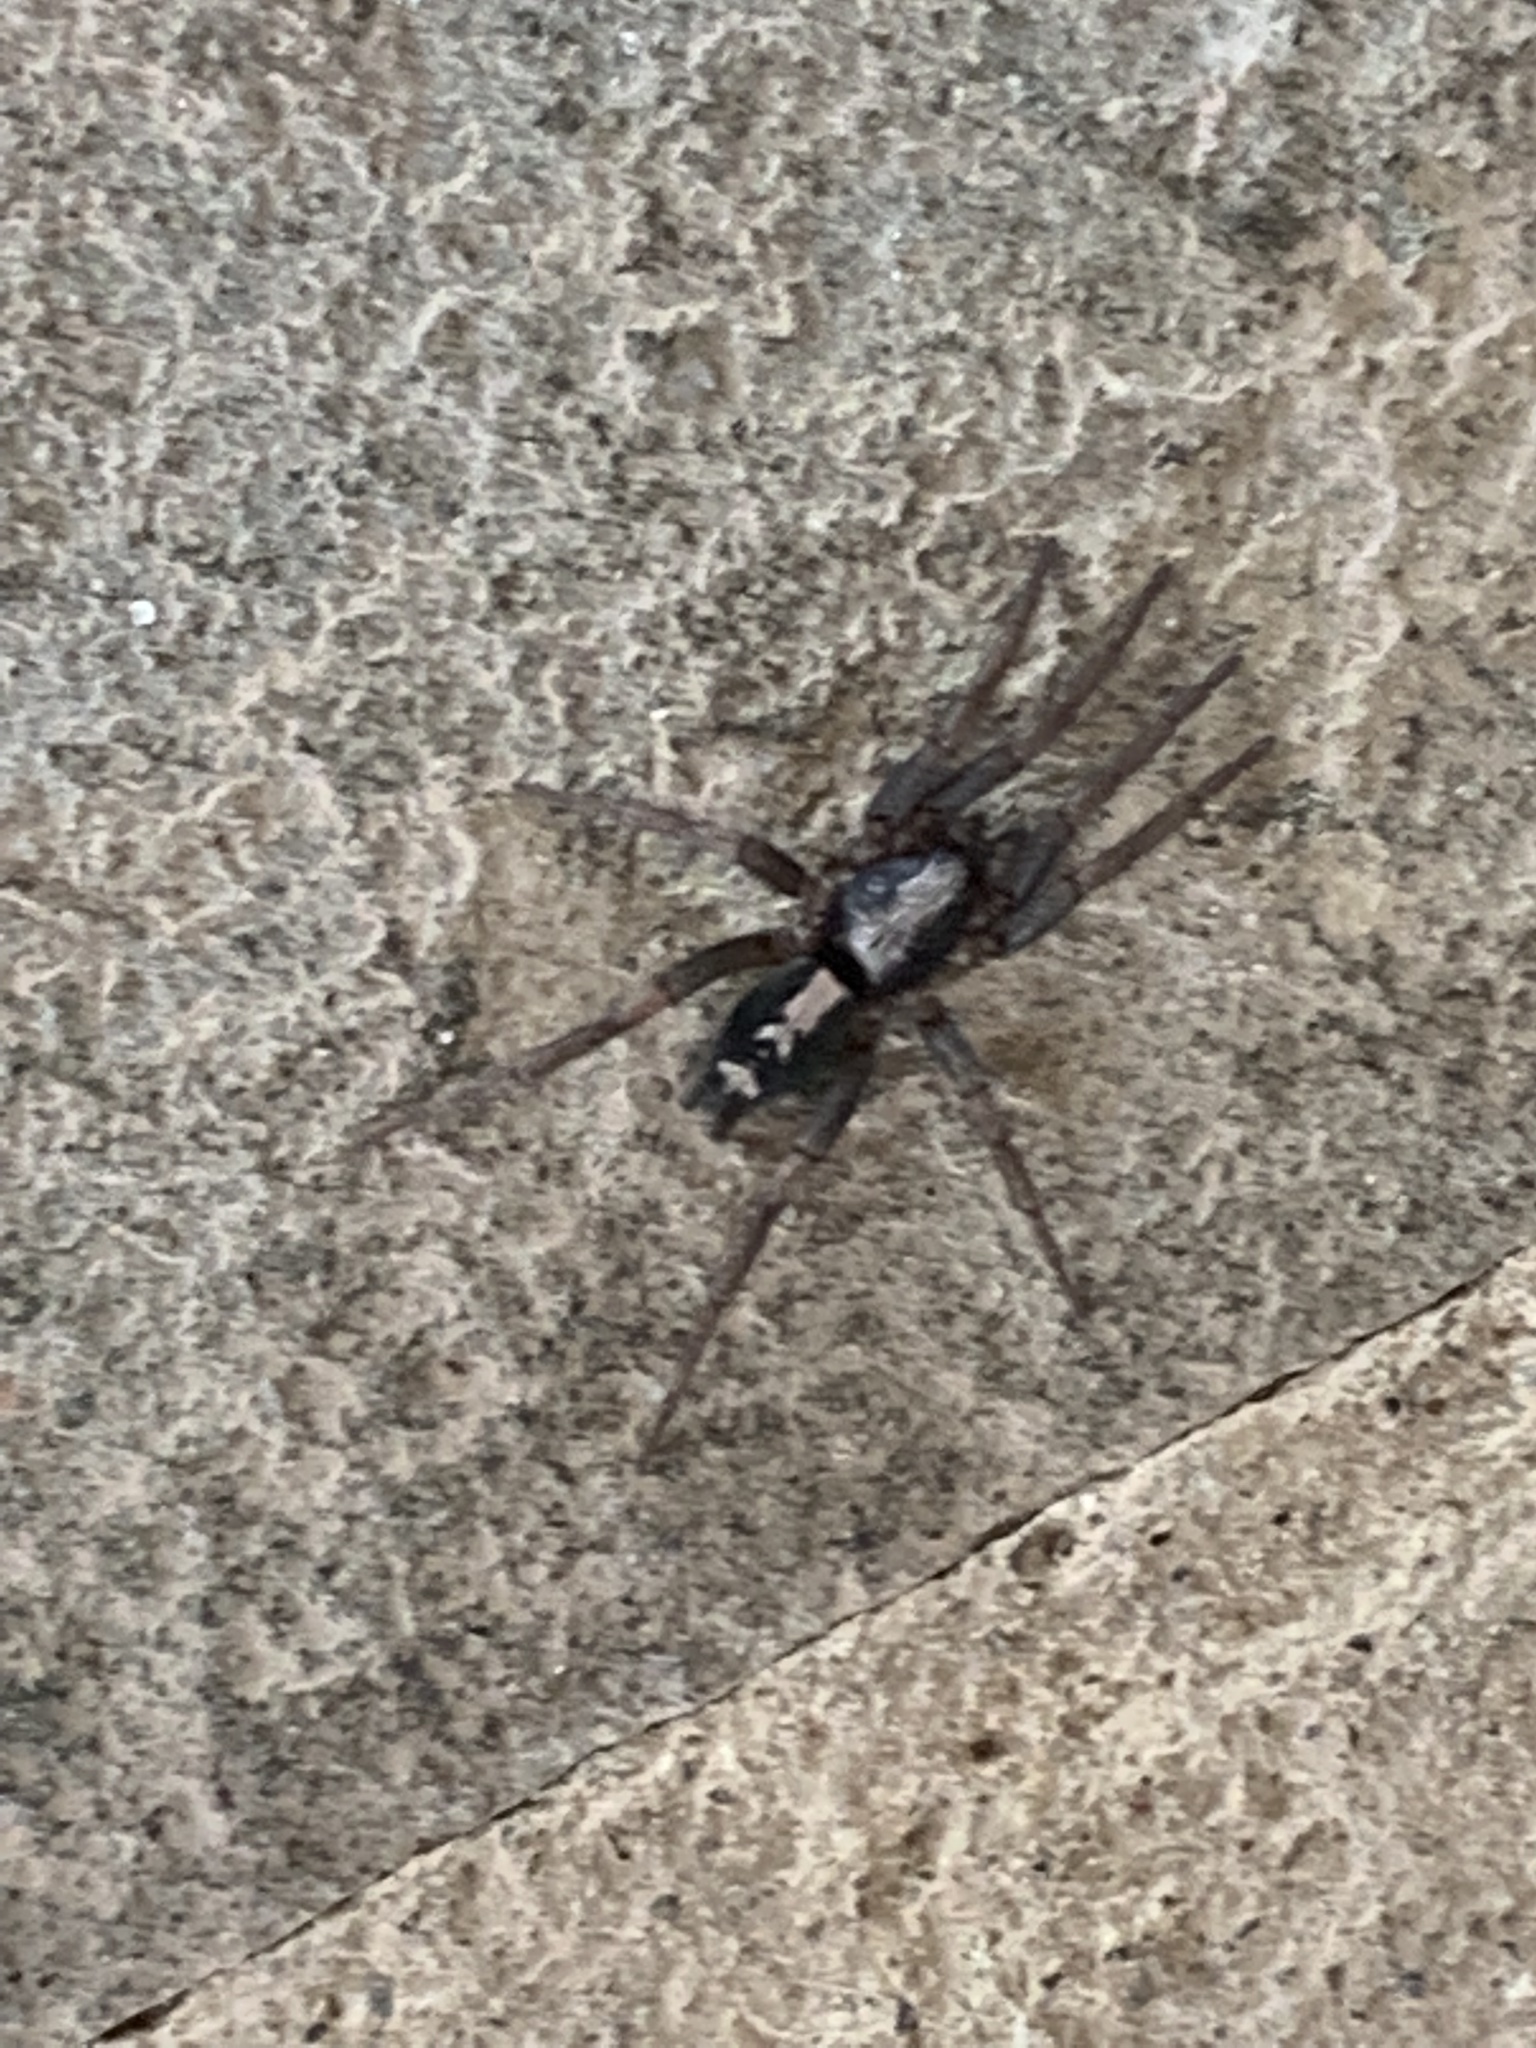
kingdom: Animalia
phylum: Arthropoda
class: Arachnida
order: Araneae
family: Gnaphosidae
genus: Herpyllus
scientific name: Herpyllus ecclesiasticus
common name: Eastern parson spider
